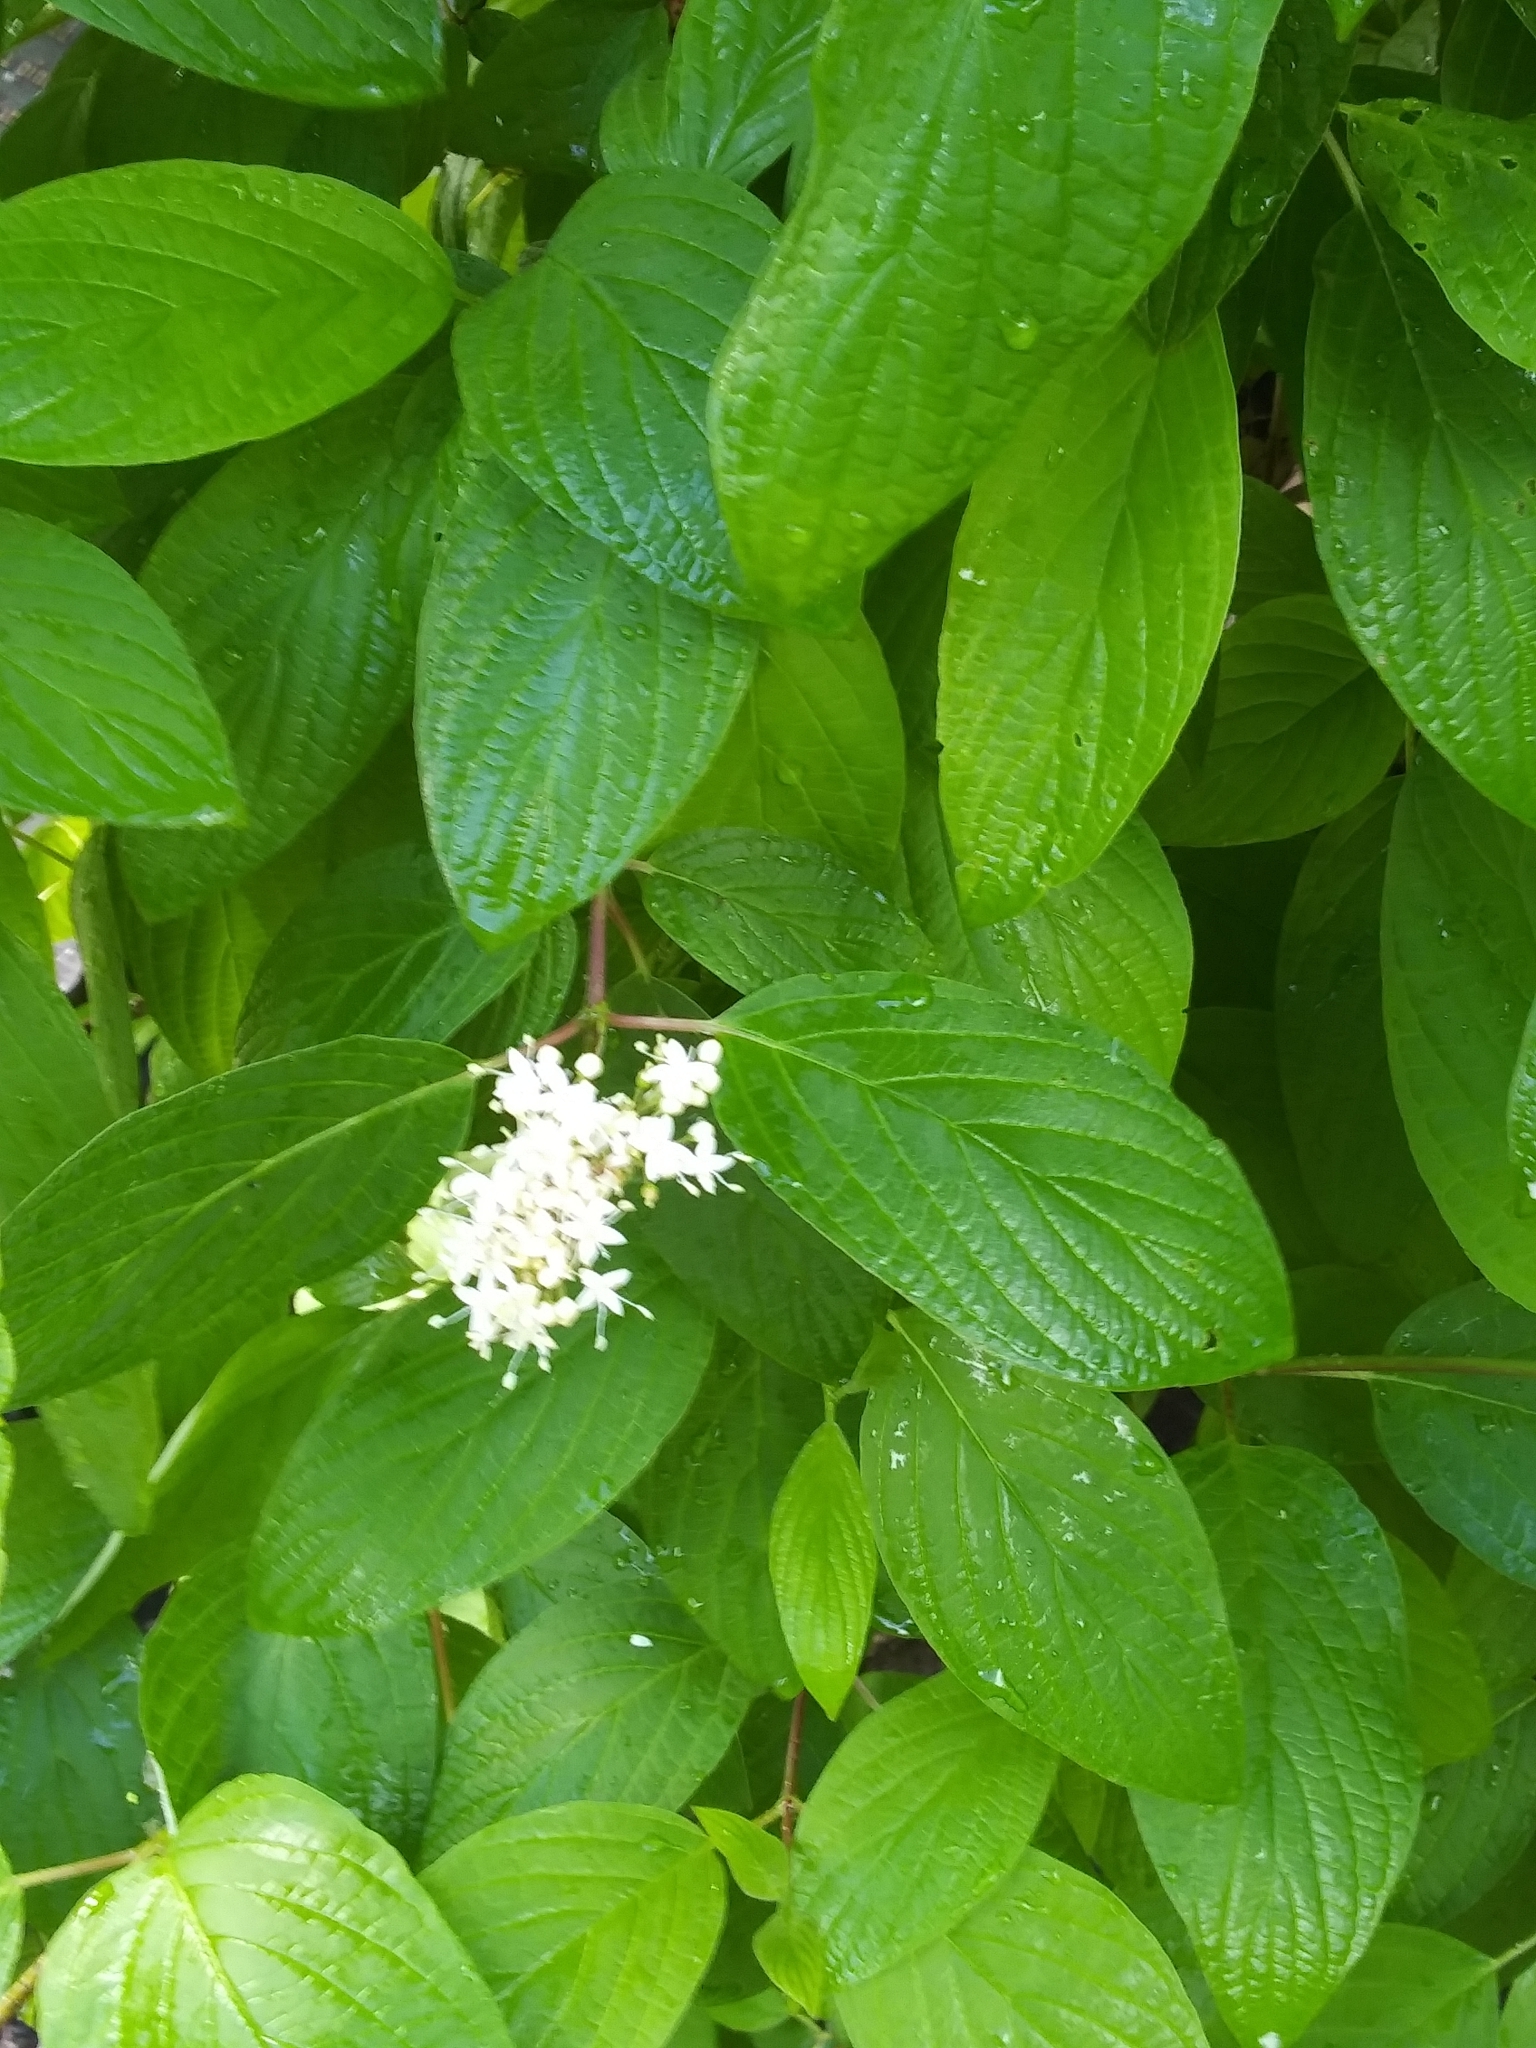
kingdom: Plantae
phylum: Tracheophyta
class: Magnoliopsida
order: Cornales
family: Cornaceae
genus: Cornus
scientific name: Cornus sericea
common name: Red-osier dogwood
